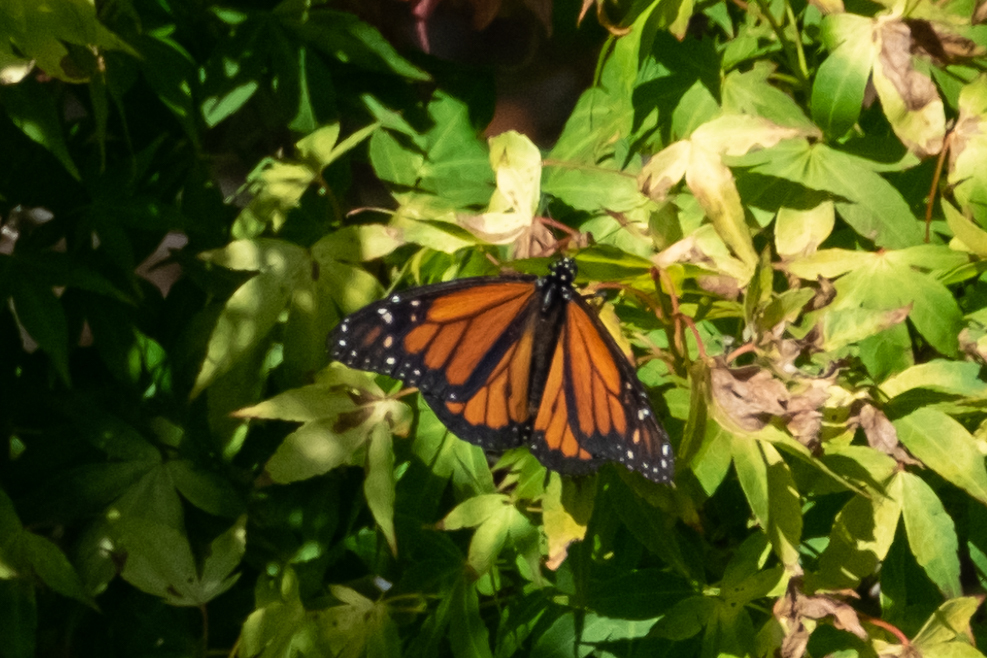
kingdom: Animalia
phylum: Arthropoda
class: Insecta
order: Lepidoptera
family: Nymphalidae
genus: Danaus
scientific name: Danaus plexippus
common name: Monarch
